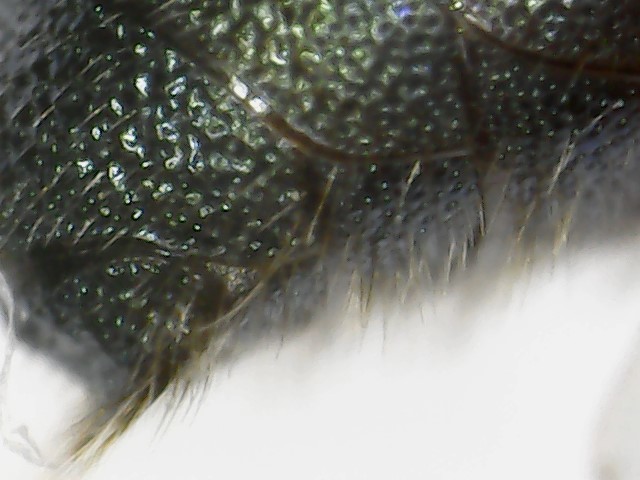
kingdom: Animalia
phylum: Arthropoda
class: Insecta
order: Hymenoptera
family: Apidae
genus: Ceratina
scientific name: Ceratina calcarata
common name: Spurred carpenter bee
